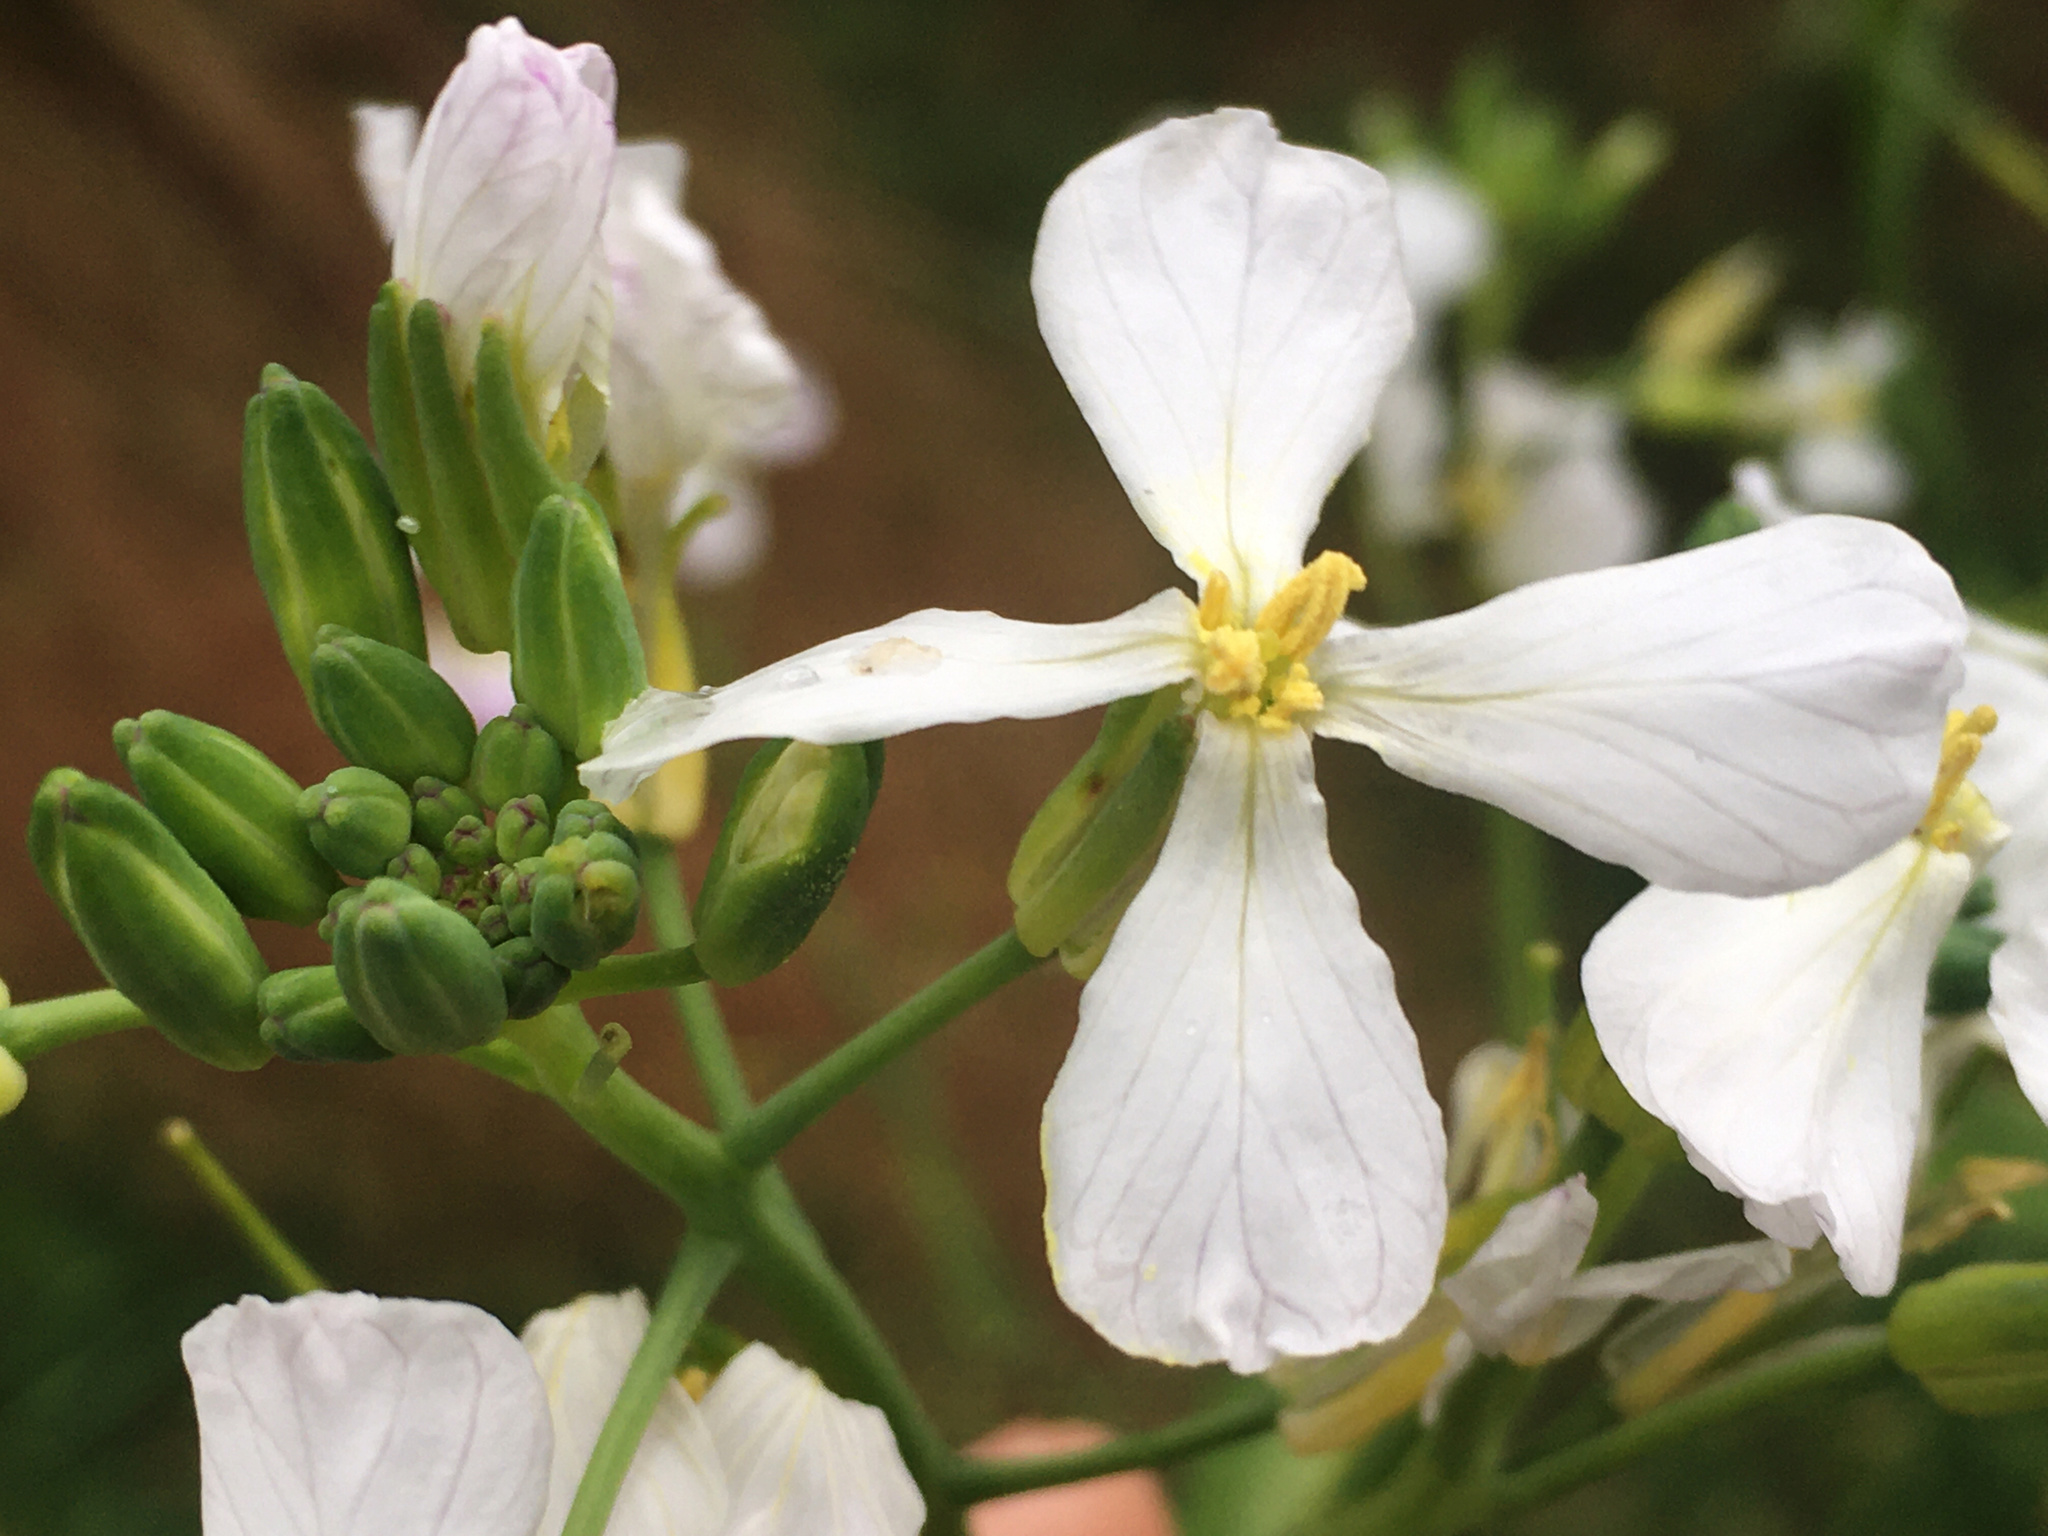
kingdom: Plantae
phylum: Tracheophyta
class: Magnoliopsida
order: Brassicales
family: Brassicaceae
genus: Raphanus
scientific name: Raphanus raphanistrum
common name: Wild radish
